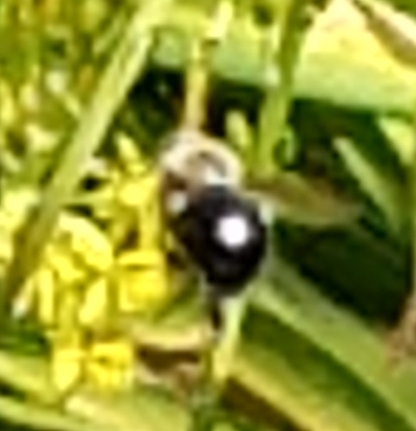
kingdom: Animalia
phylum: Arthropoda
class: Insecta
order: Hymenoptera
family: Apidae
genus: Xylocopa
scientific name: Xylocopa tabaniformis
